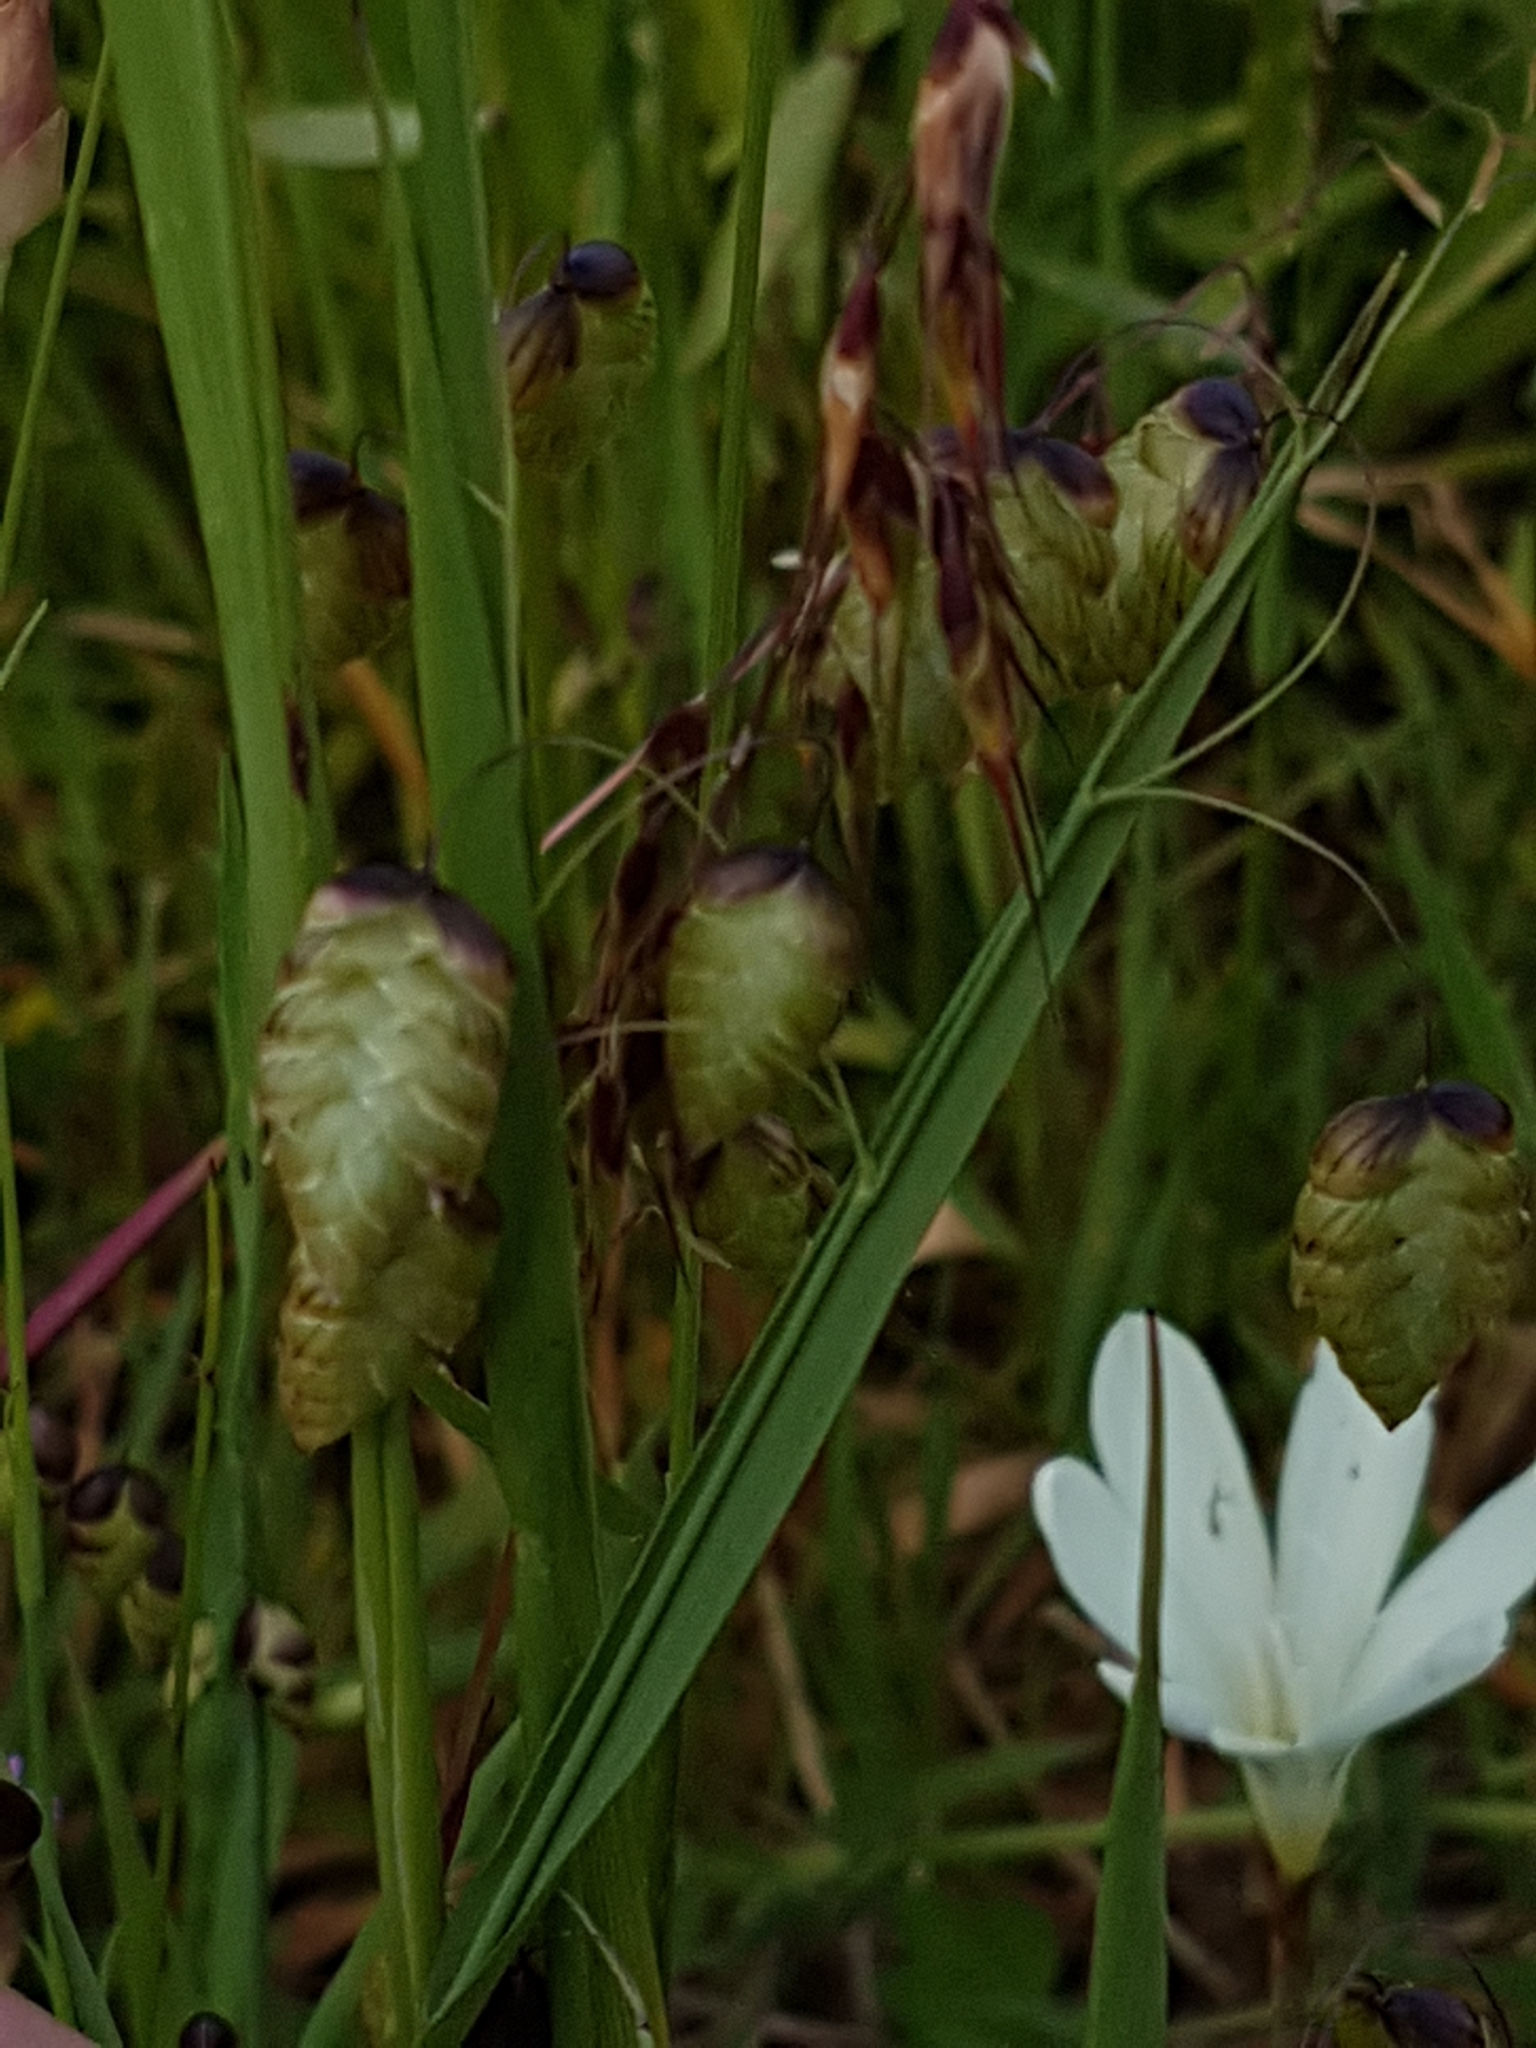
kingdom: Plantae
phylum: Tracheophyta
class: Liliopsida
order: Poales
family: Poaceae
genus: Briza
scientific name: Briza maxima
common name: Big quakinggrass
